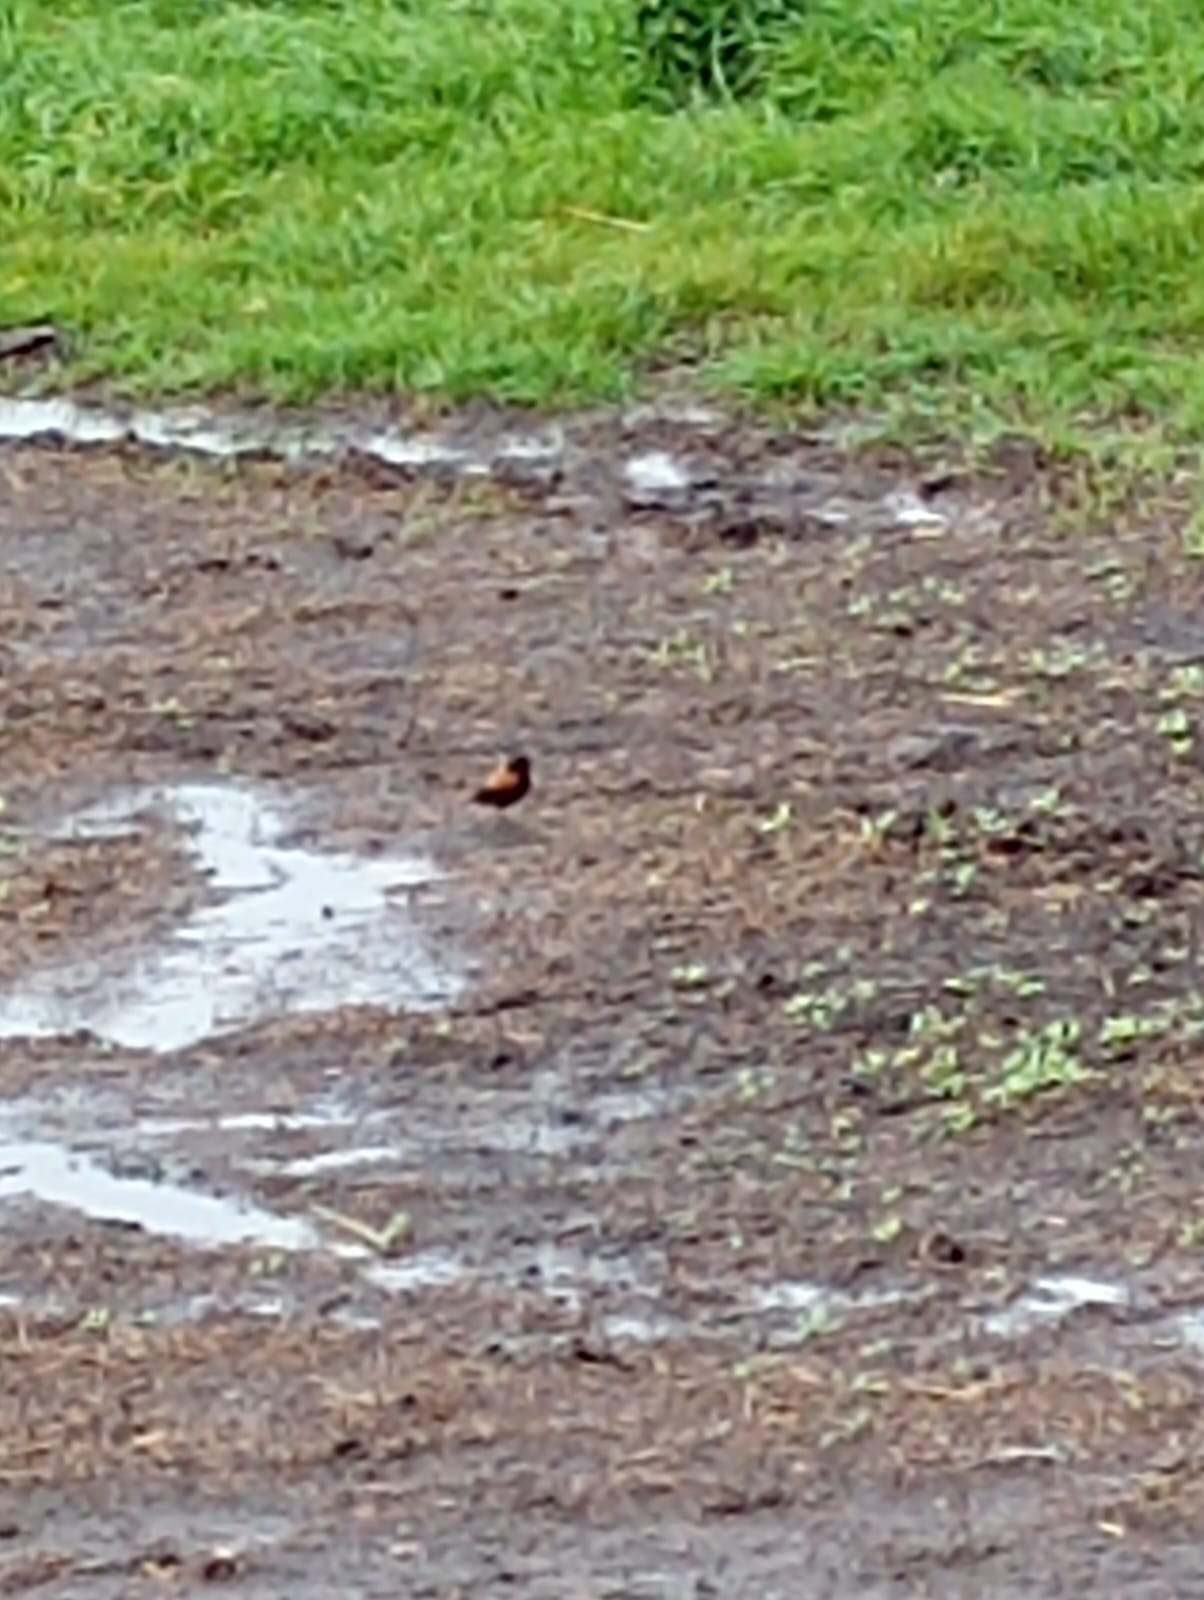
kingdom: Animalia
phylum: Chordata
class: Aves
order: Passeriformes
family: Tyrannidae
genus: Lessonia
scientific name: Lessonia rufa
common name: Austral negrito
